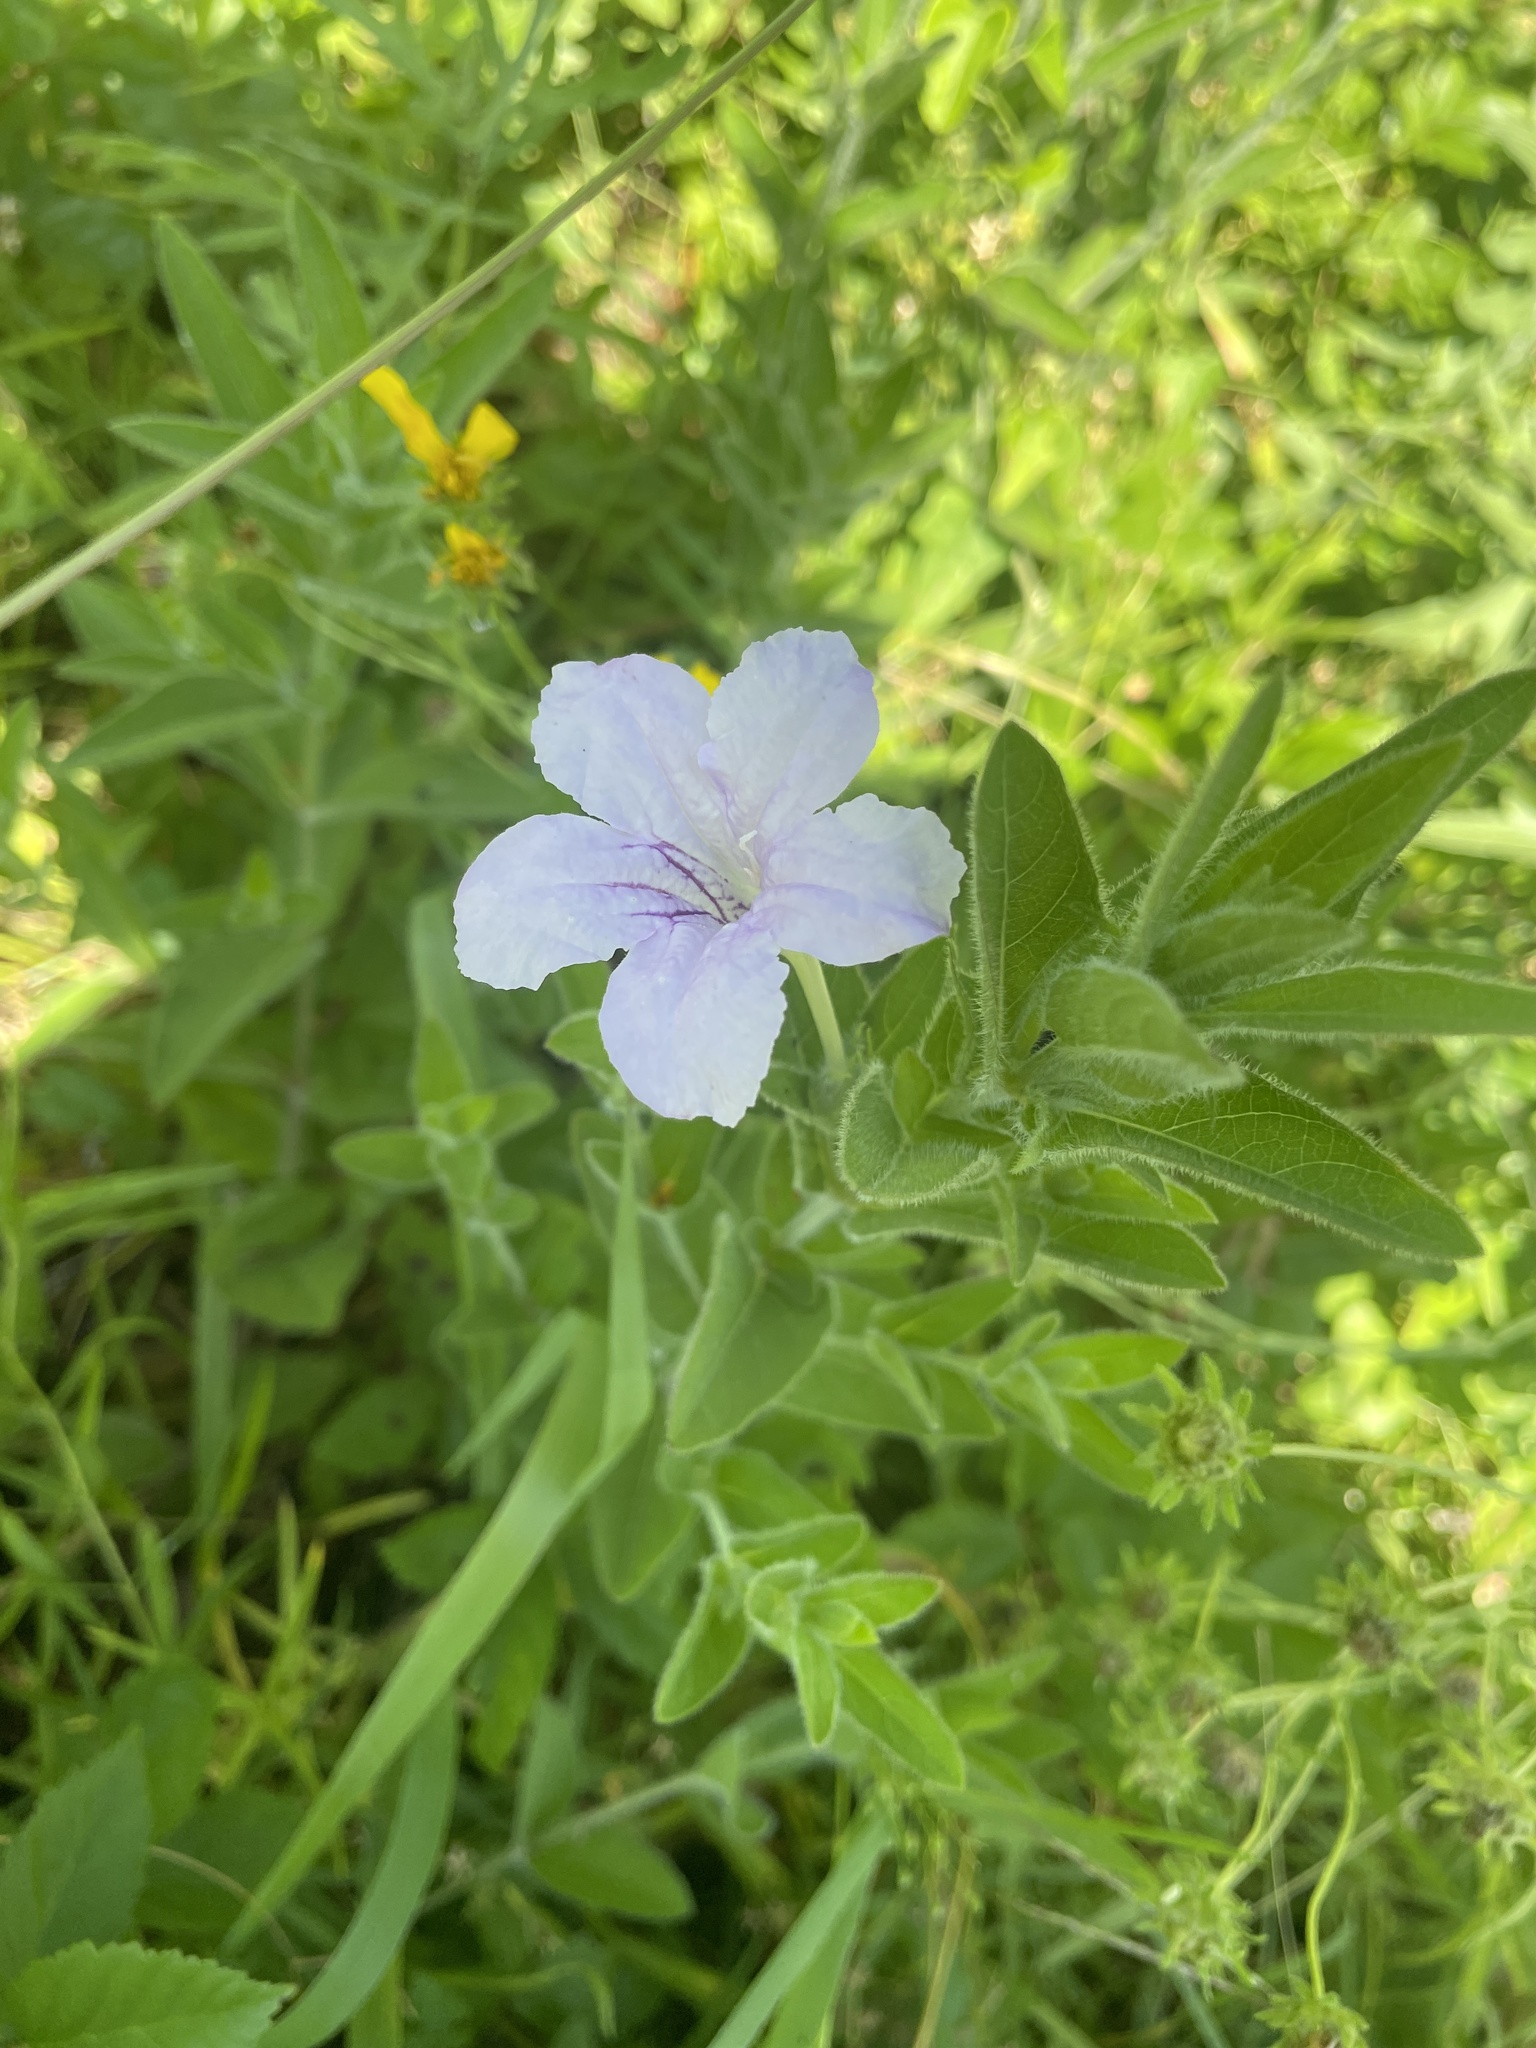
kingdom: Plantae
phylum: Tracheophyta
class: Magnoliopsida
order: Lamiales
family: Acanthaceae
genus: Ruellia
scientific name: Ruellia humilis
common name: Fringe-leaf ruellia
